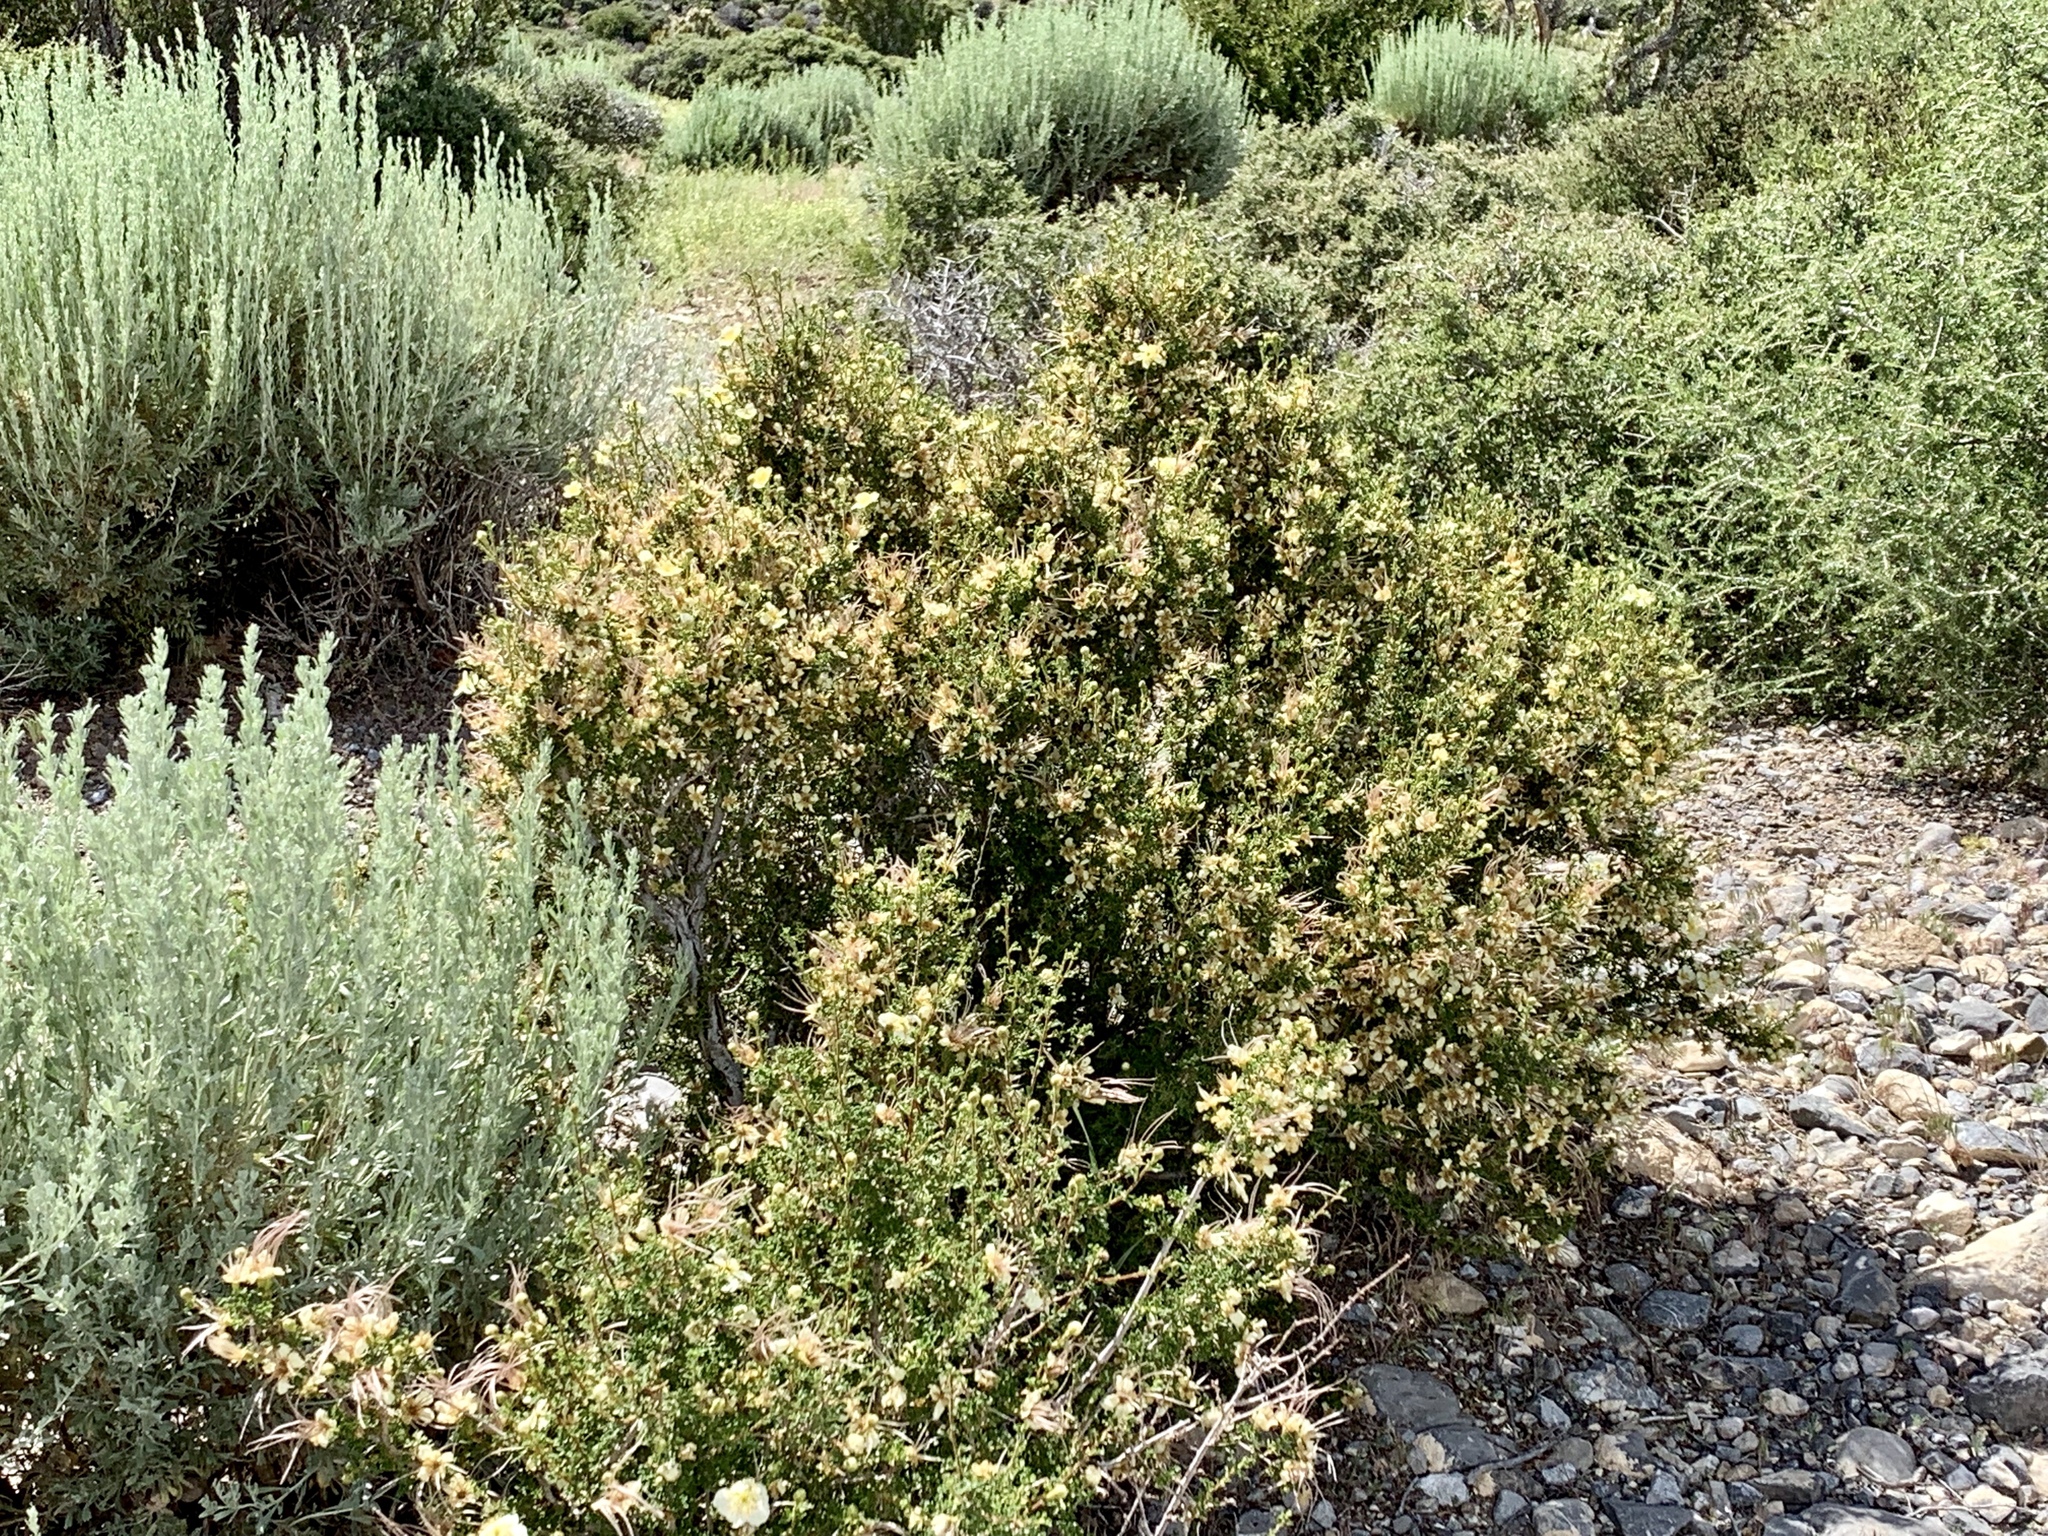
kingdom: Plantae
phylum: Tracheophyta
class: Magnoliopsida
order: Rosales
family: Rosaceae
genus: Purshia
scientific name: Purshia stansburiana
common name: Stansbury's cliffrose
